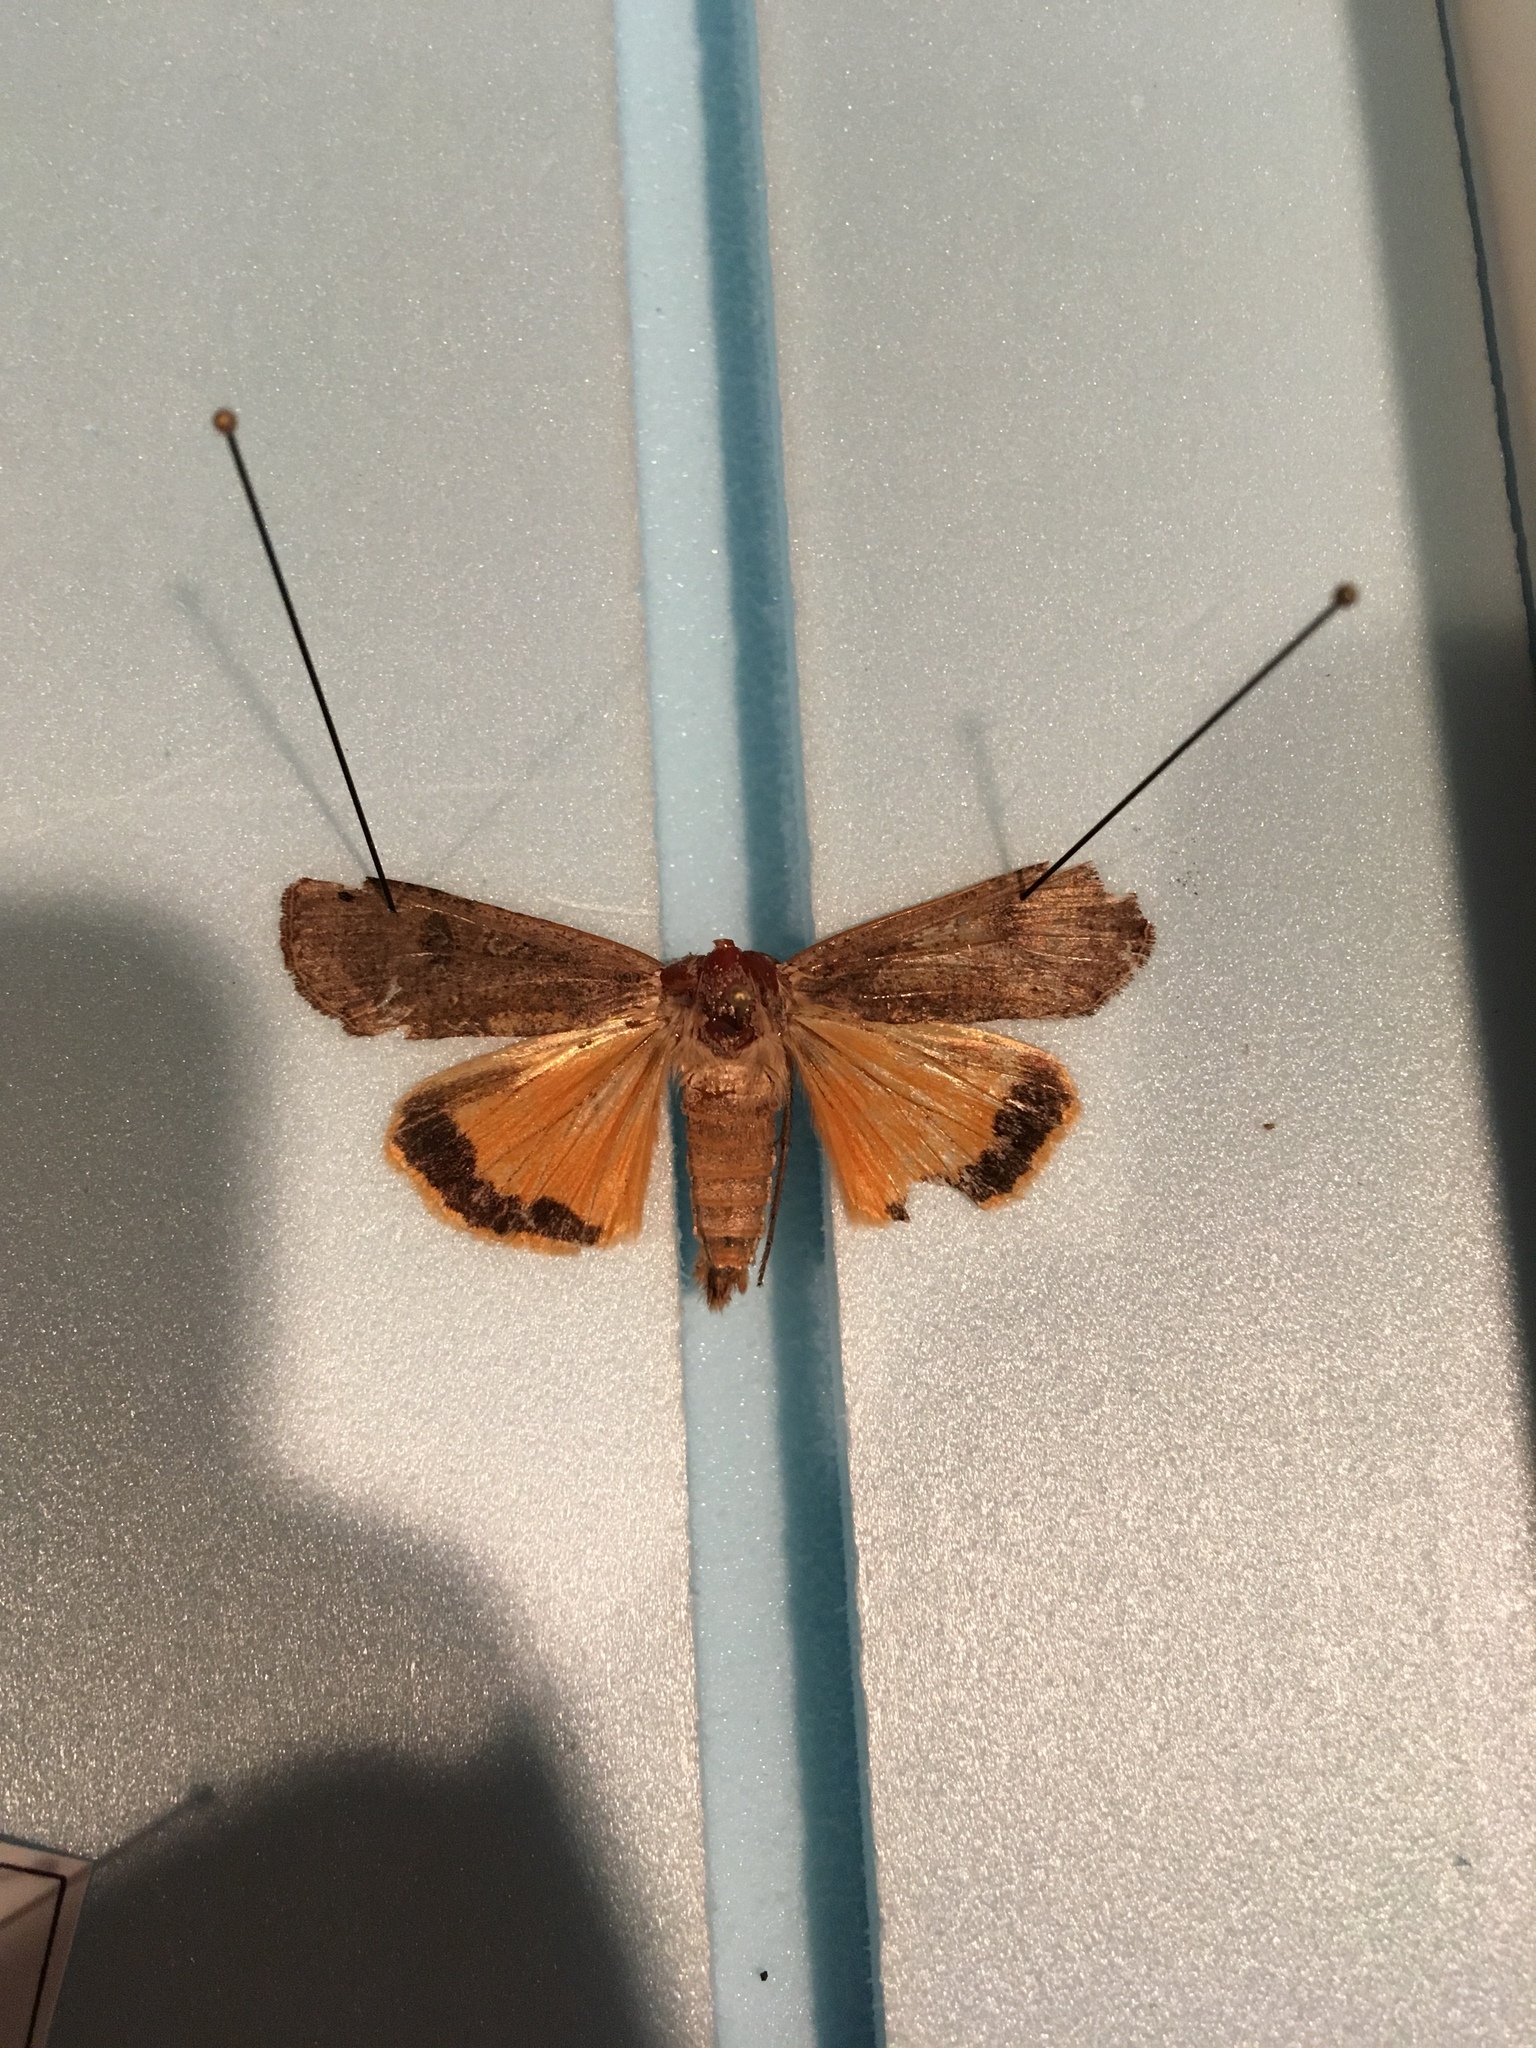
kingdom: Animalia
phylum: Arthropoda
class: Insecta
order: Lepidoptera
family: Noctuidae
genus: Noctua
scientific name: Noctua pronuba
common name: Large yellow underwing
